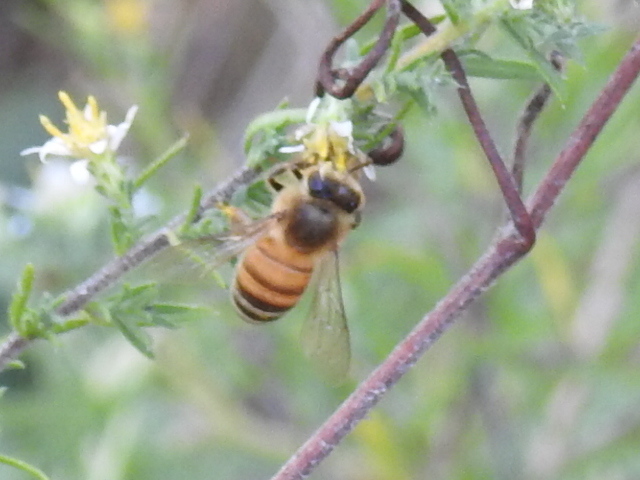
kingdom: Animalia
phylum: Arthropoda
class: Insecta
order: Hymenoptera
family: Apidae
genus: Apis
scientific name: Apis mellifera
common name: Honey bee
